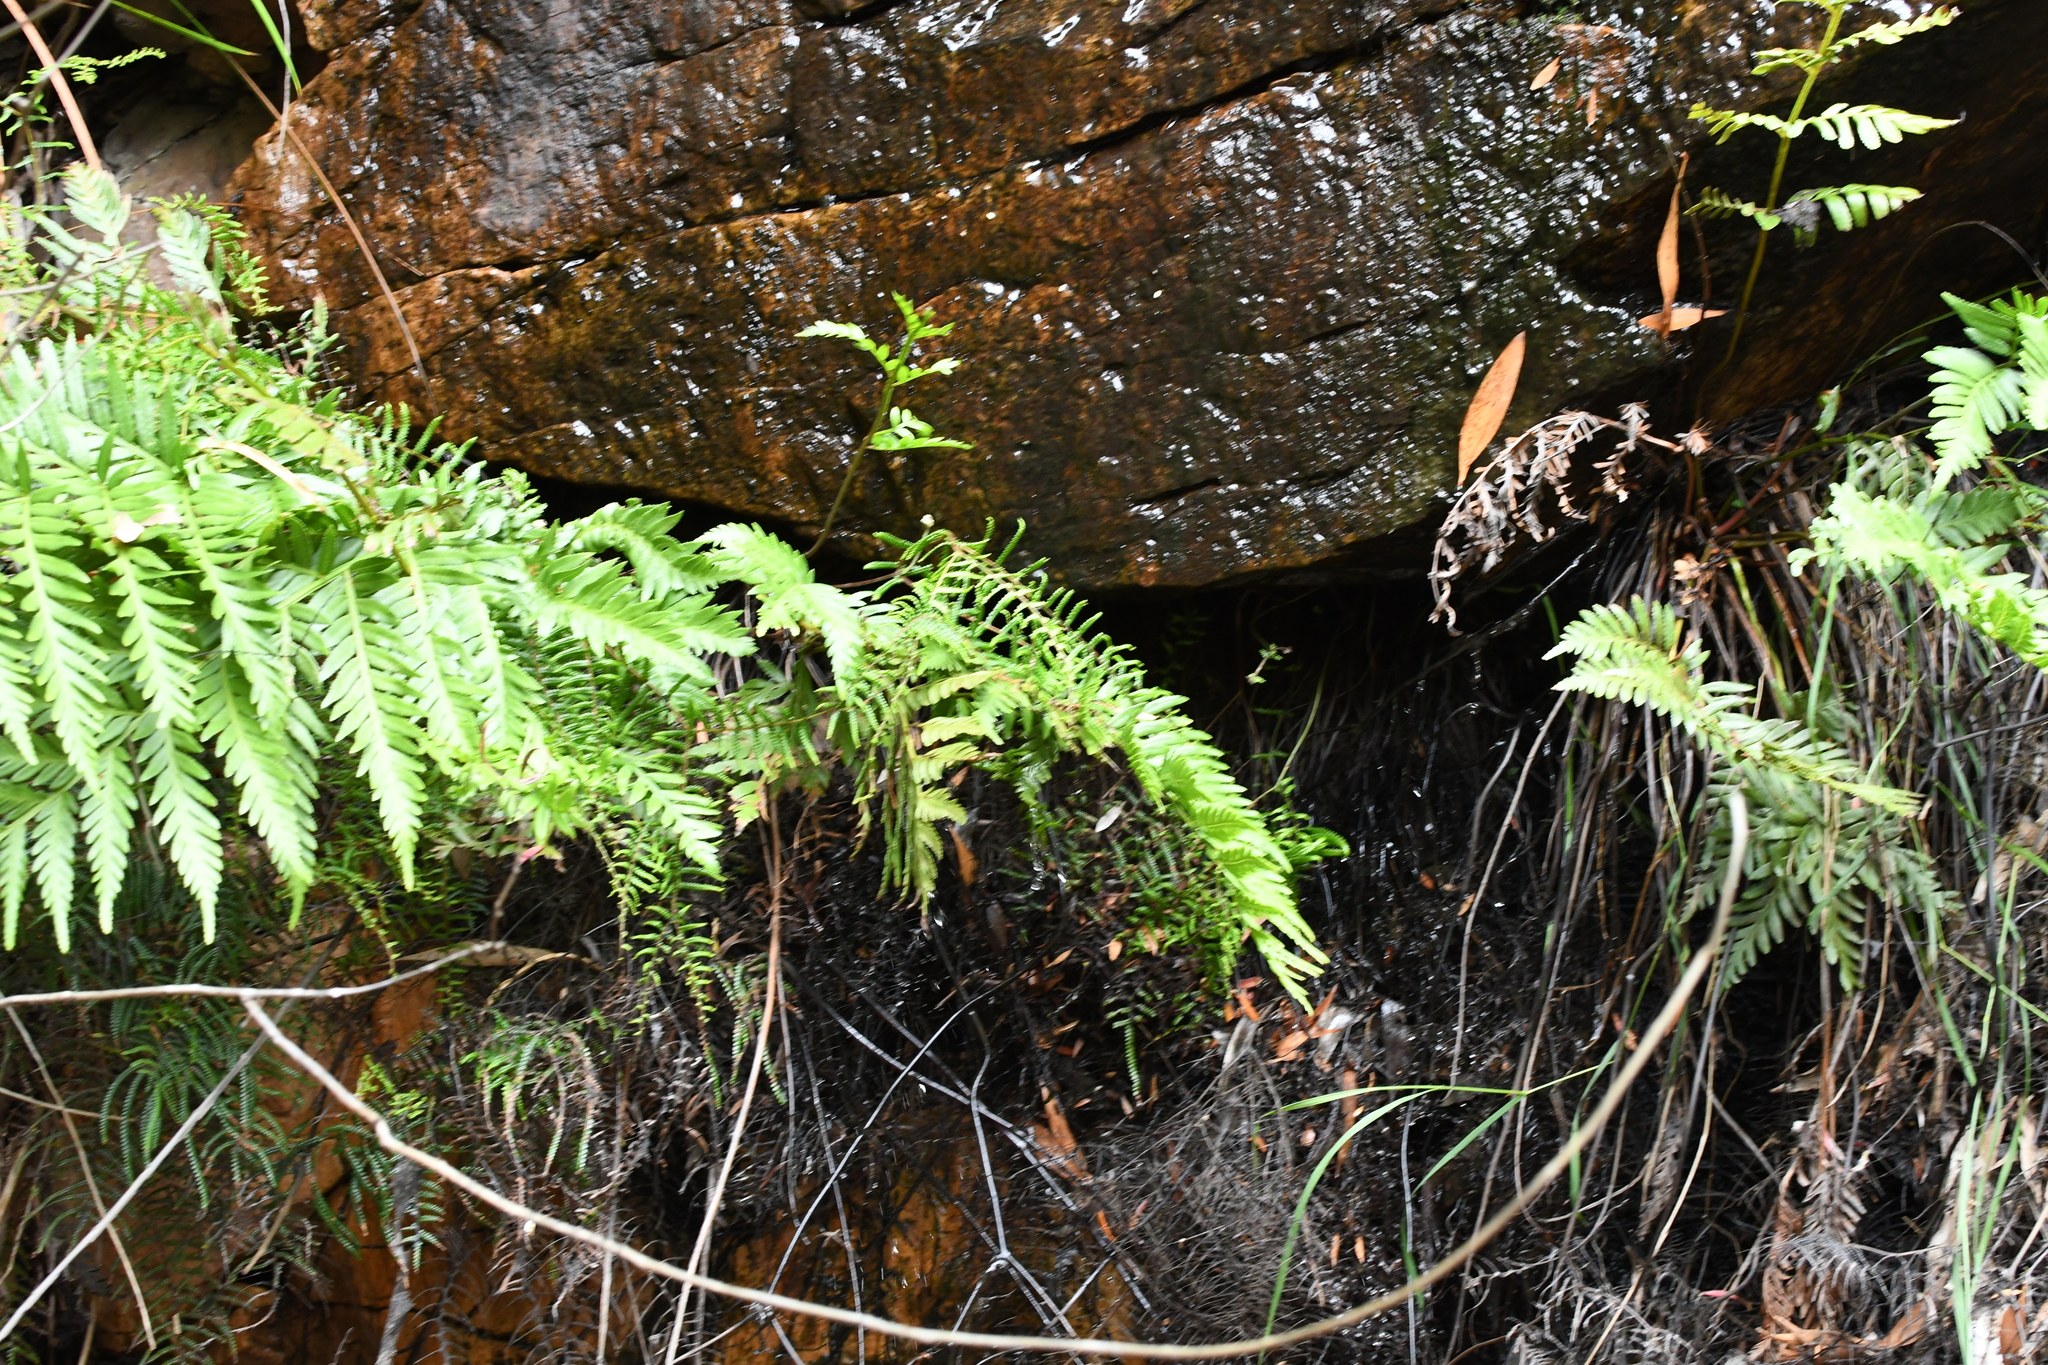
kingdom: Plantae
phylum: Tracheophyta
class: Polypodiopsida
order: Osmundales
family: Osmundaceae
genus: Todea
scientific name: Todea barbara
